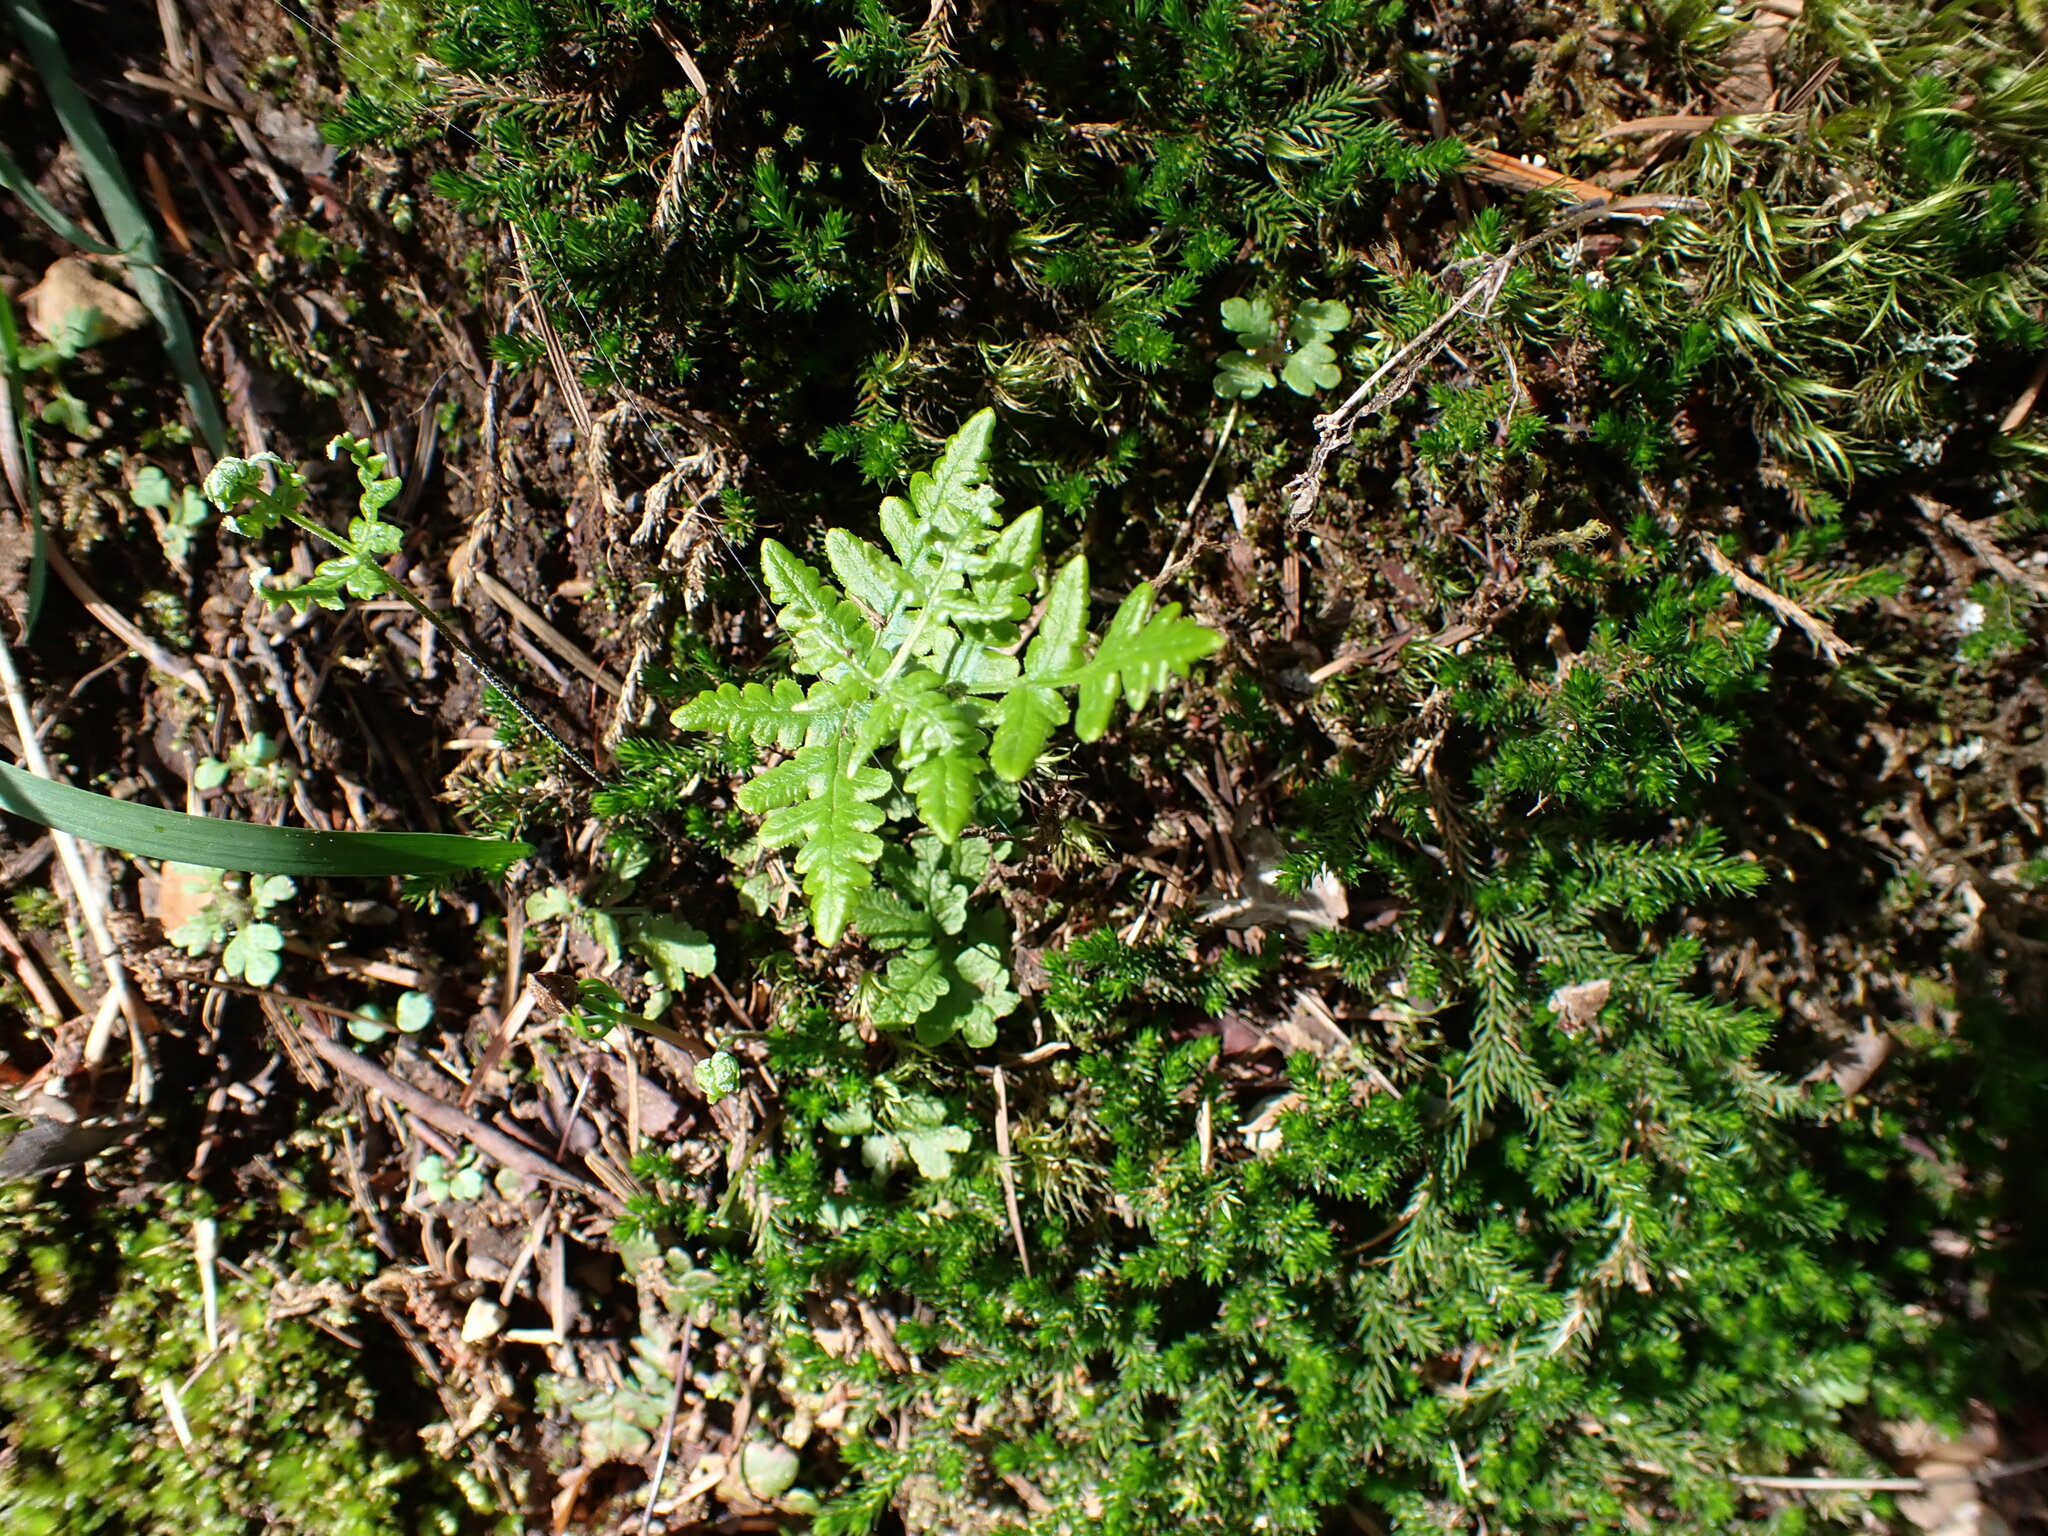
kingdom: Plantae
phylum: Tracheophyta
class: Polypodiopsida
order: Polypodiales
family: Pteridaceae
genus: Pentagramma
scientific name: Pentagramma triangularis
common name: Gold fern
